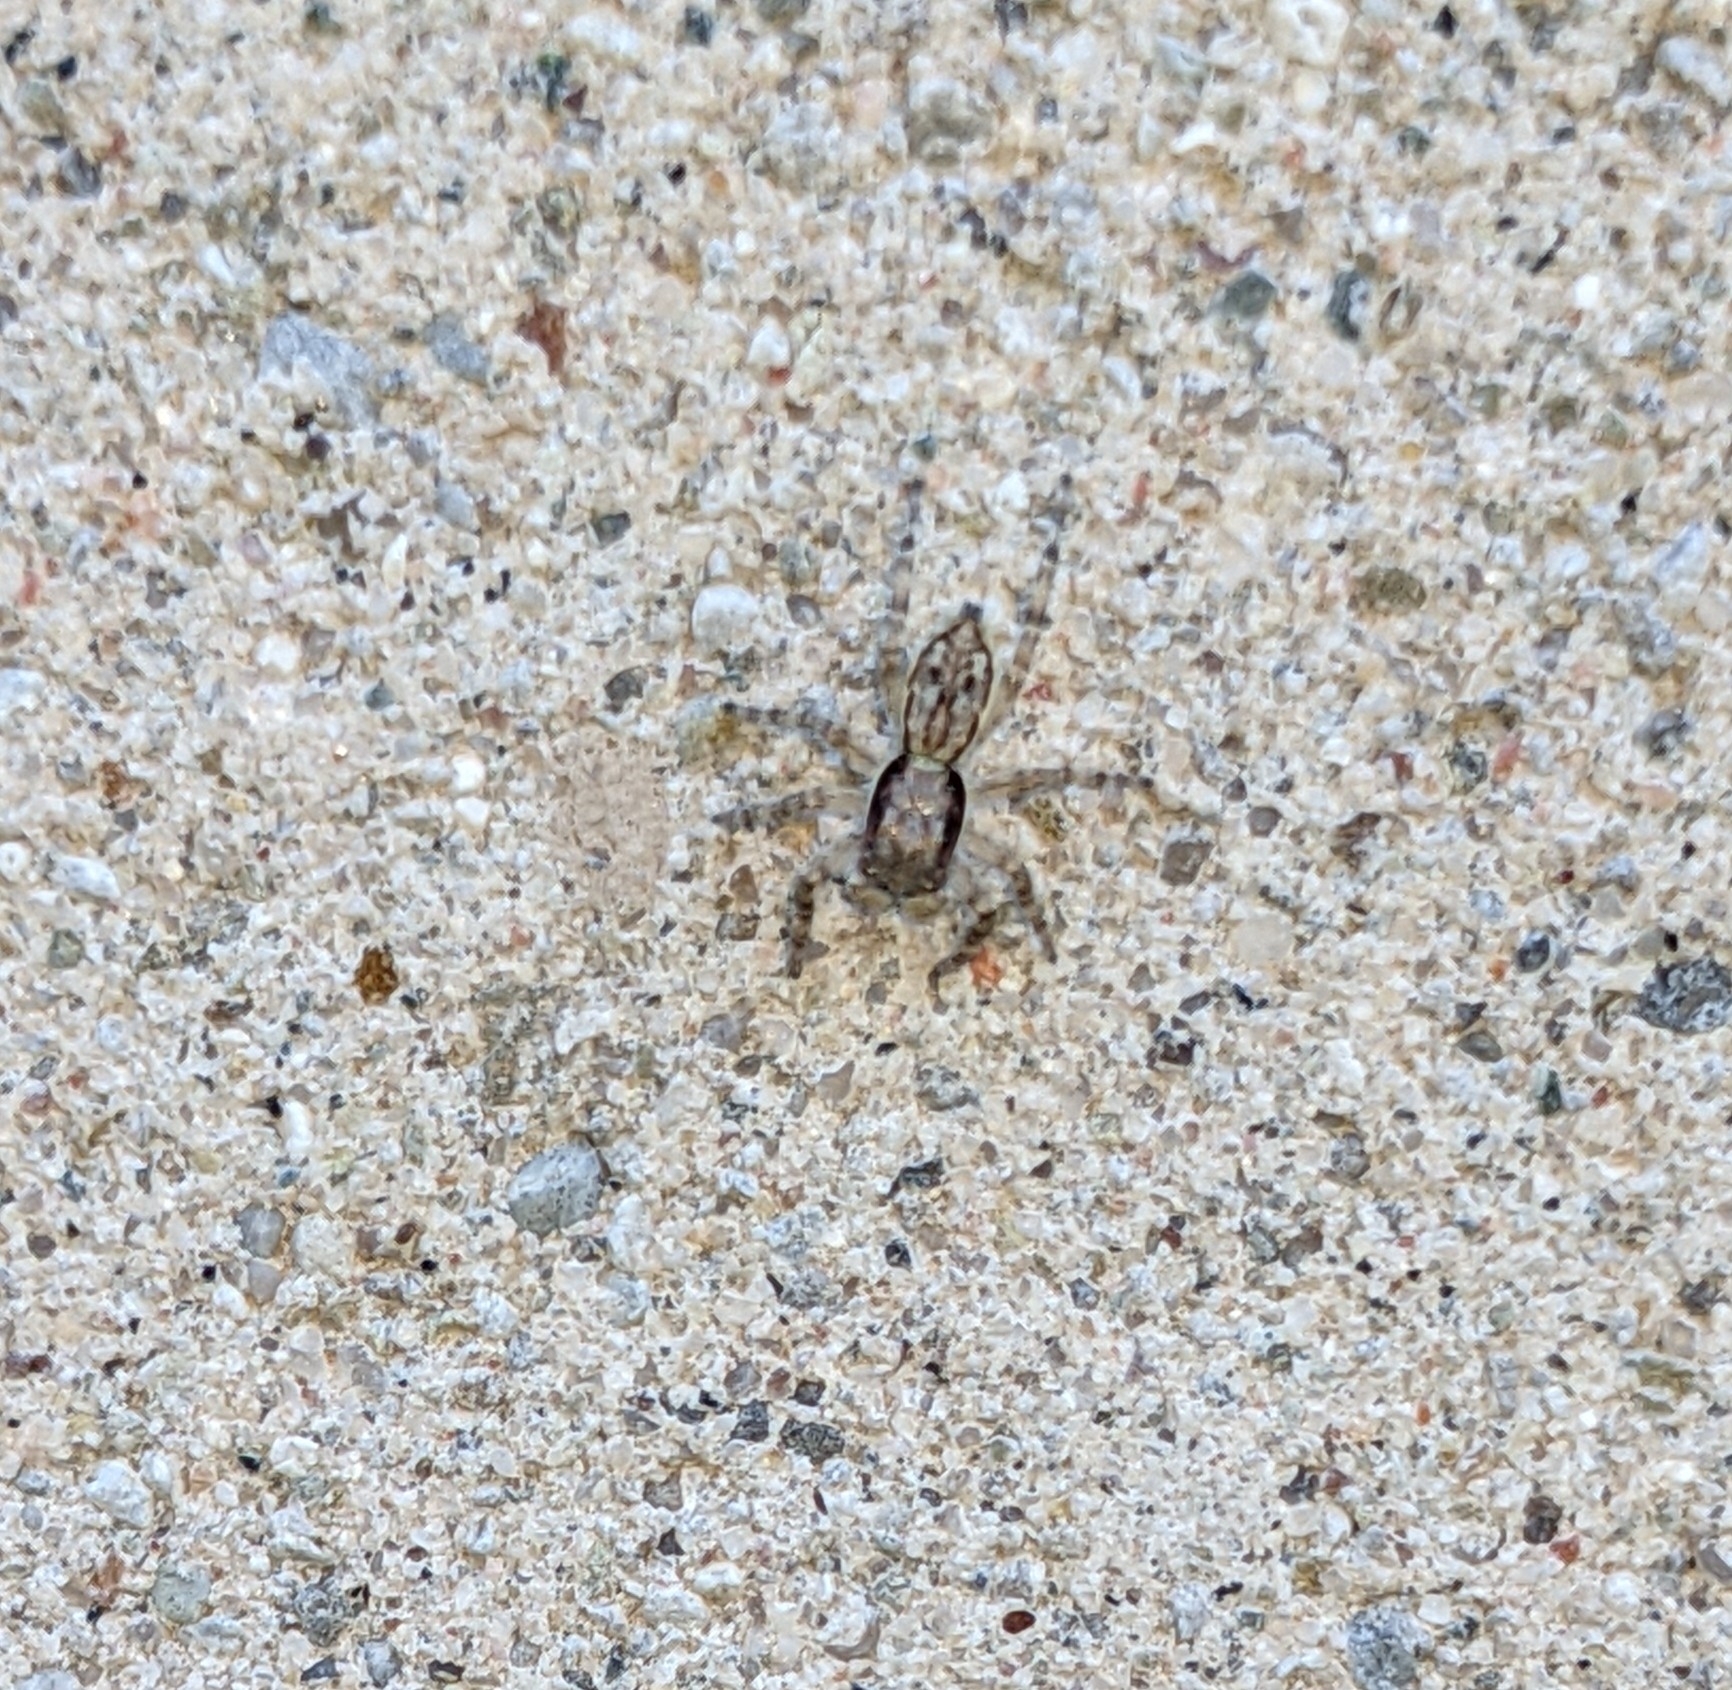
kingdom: Animalia
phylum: Arthropoda
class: Arachnida
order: Araneae
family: Salticidae
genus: Menemerus
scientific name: Menemerus bivittatus
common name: Gray wall jumper
